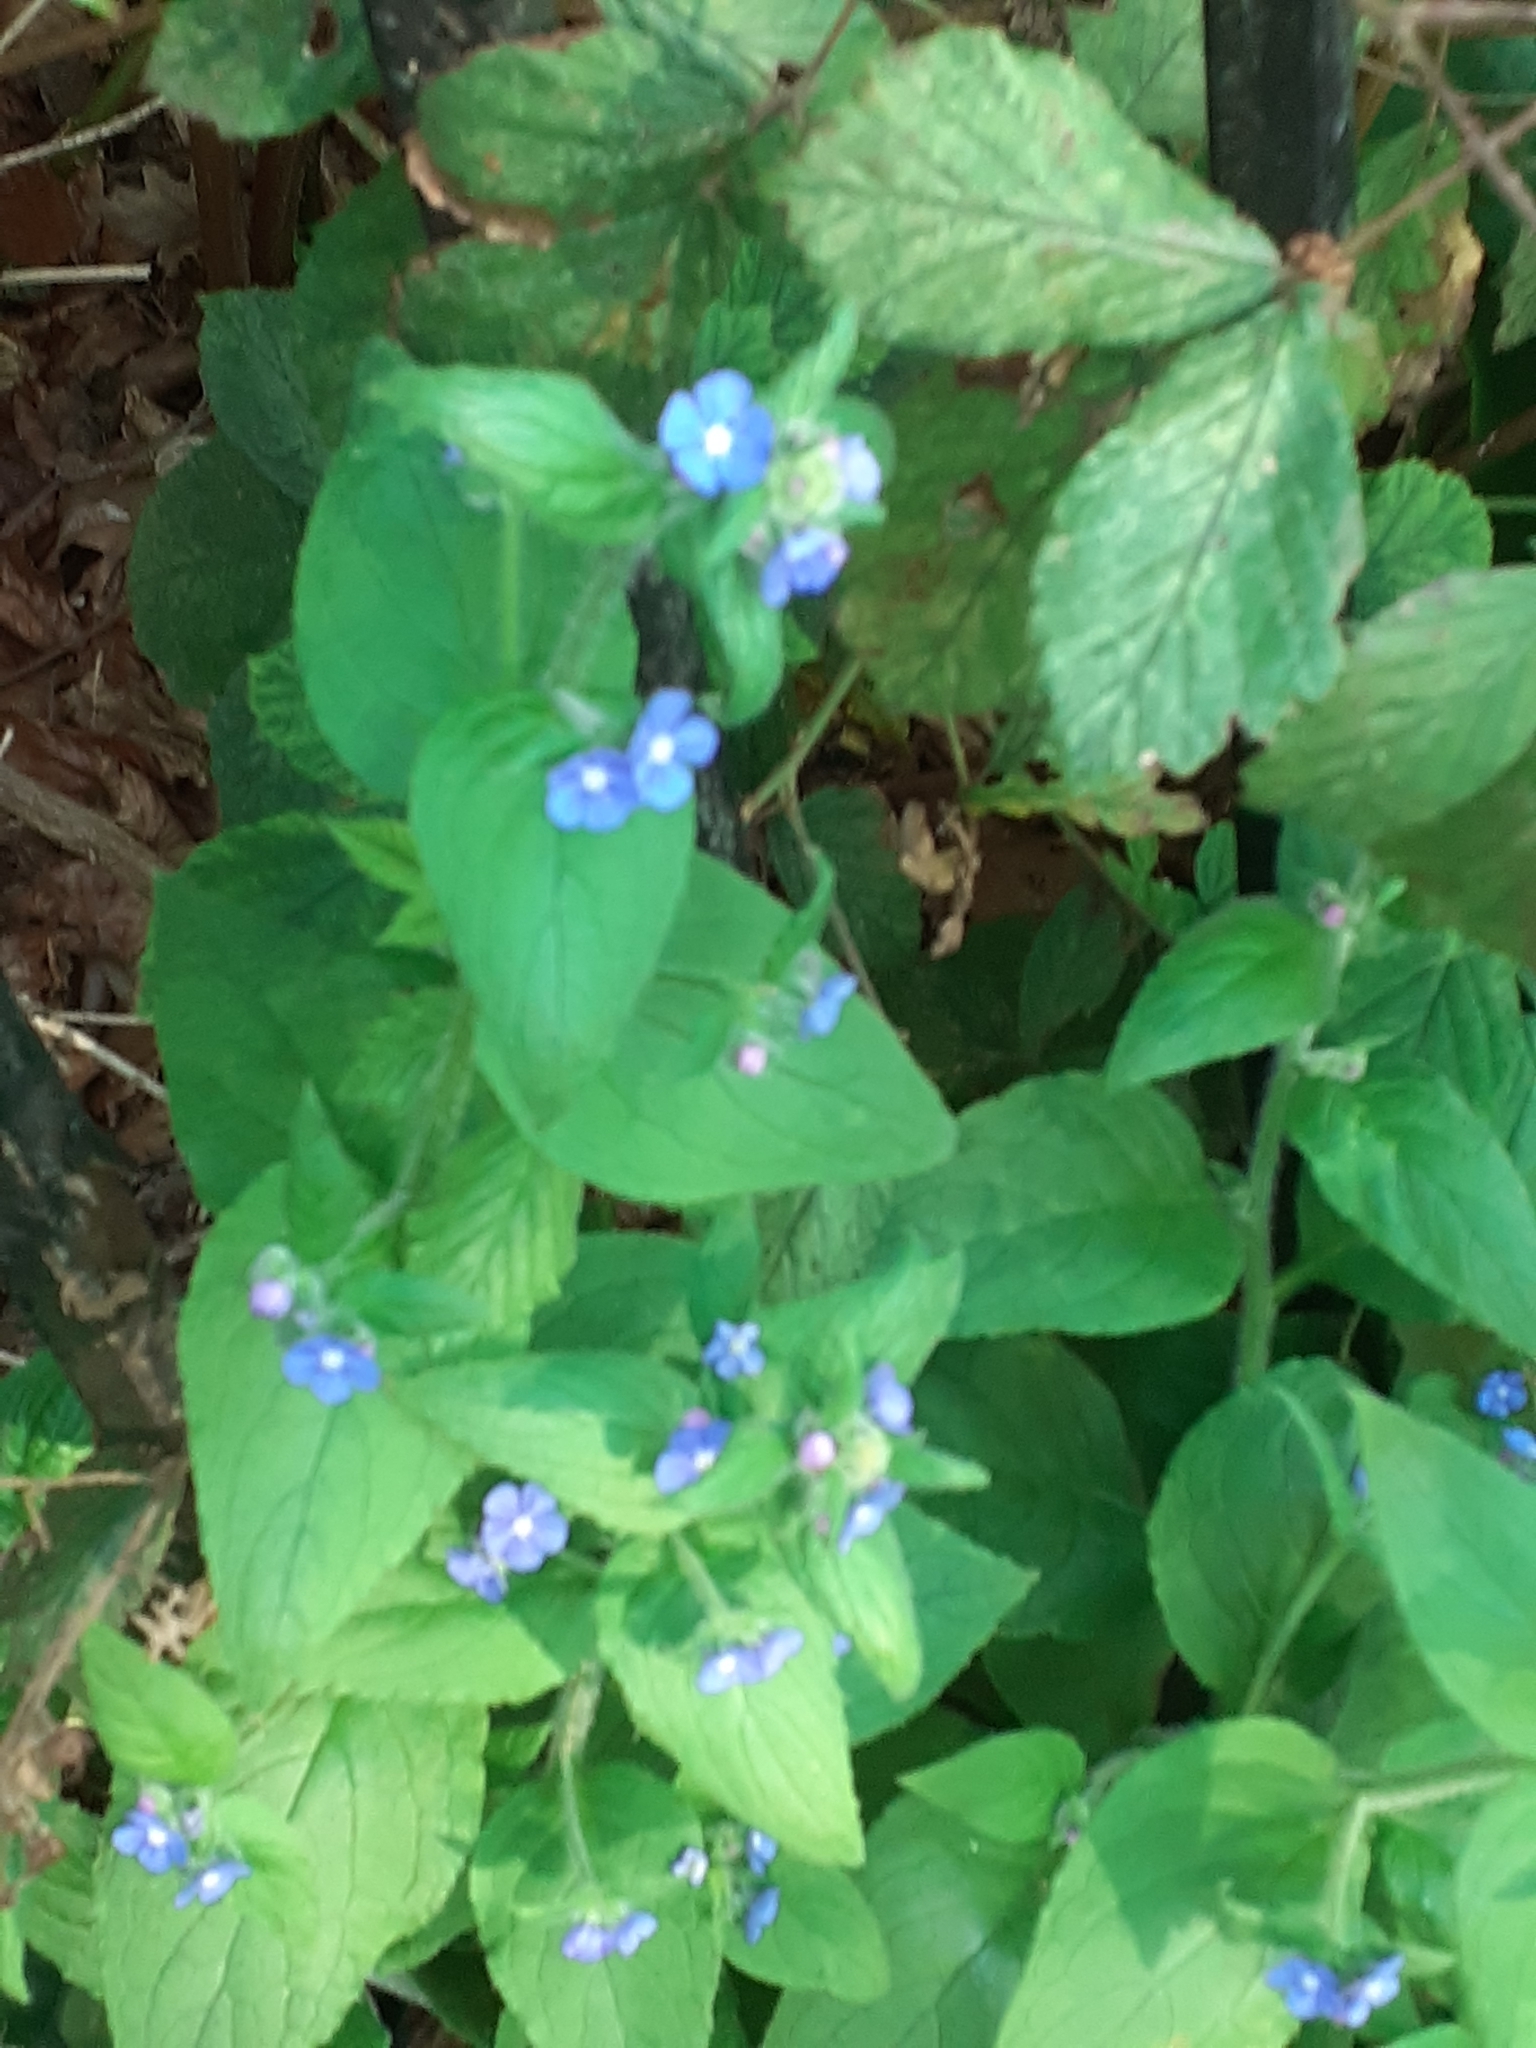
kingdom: Plantae
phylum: Tracheophyta
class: Magnoliopsida
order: Boraginales
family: Boraginaceae
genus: Pentaglottis
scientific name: Pentaglottis sempervirens
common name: Green alkanet
